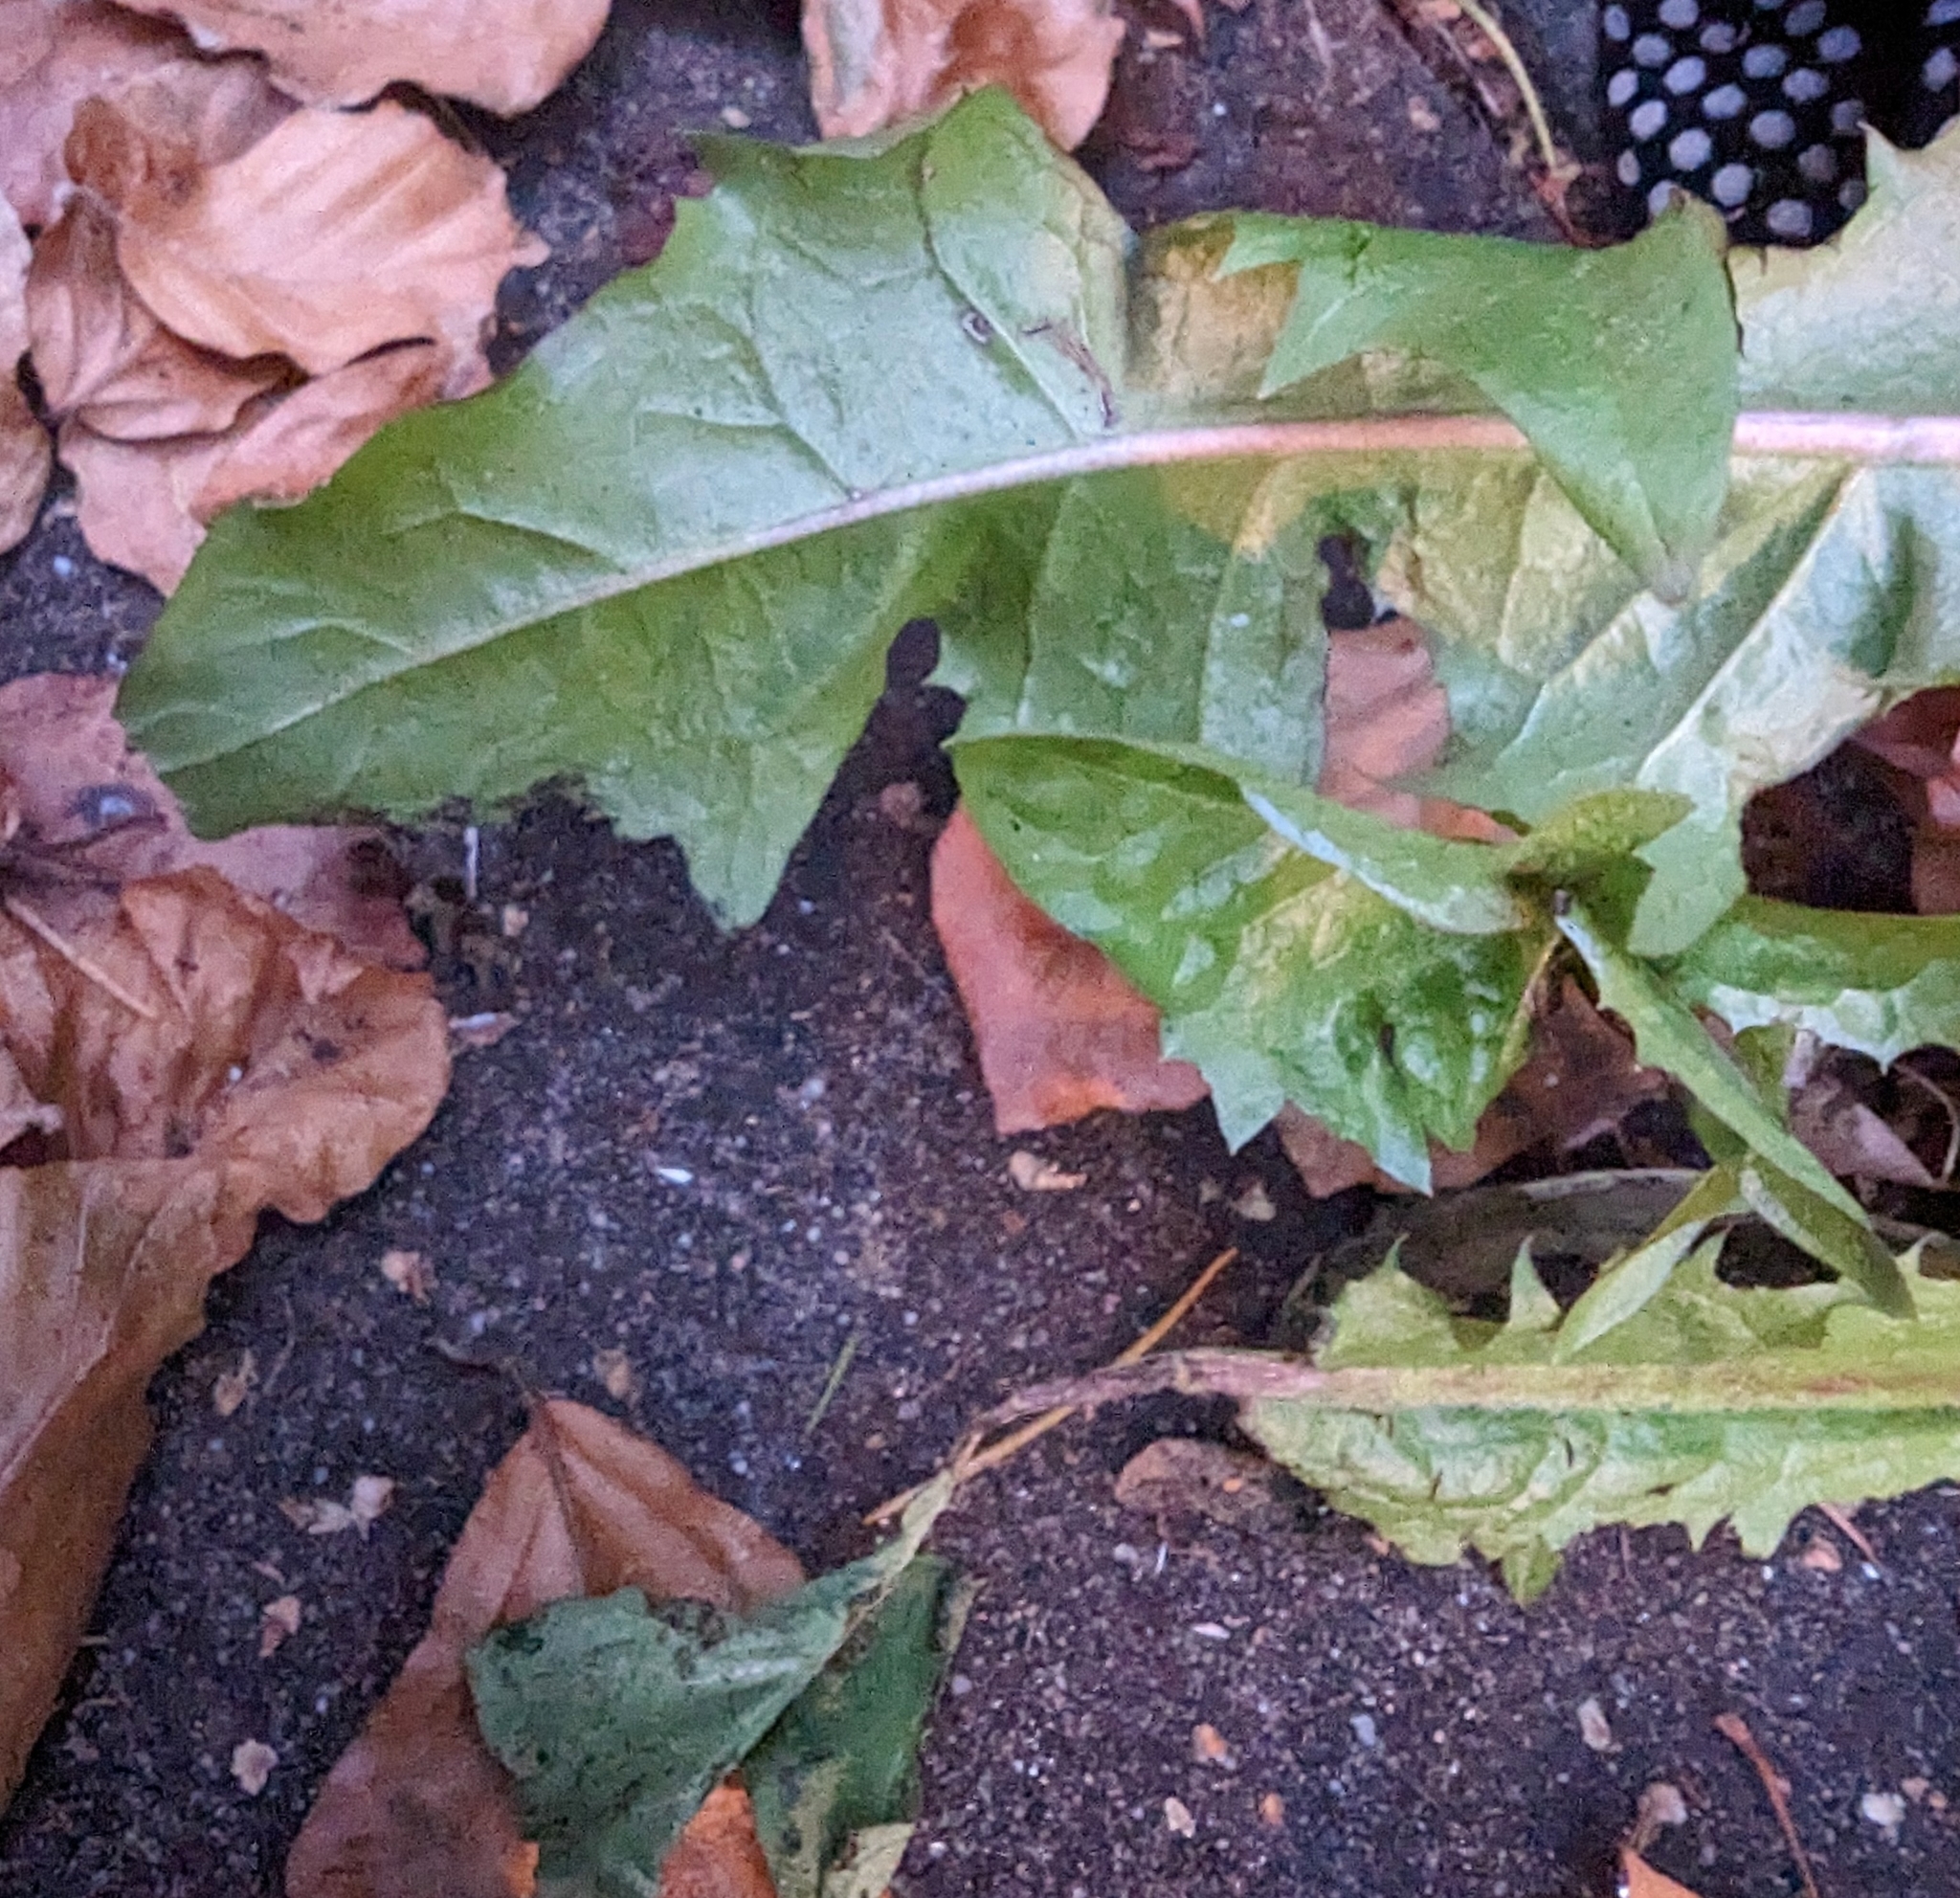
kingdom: Plantae
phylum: Tracheophyta
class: Magnoliopsida
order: Asterales
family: Asteraceae
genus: Taraxacum
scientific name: Taraxacum officinale
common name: Common dandelion
